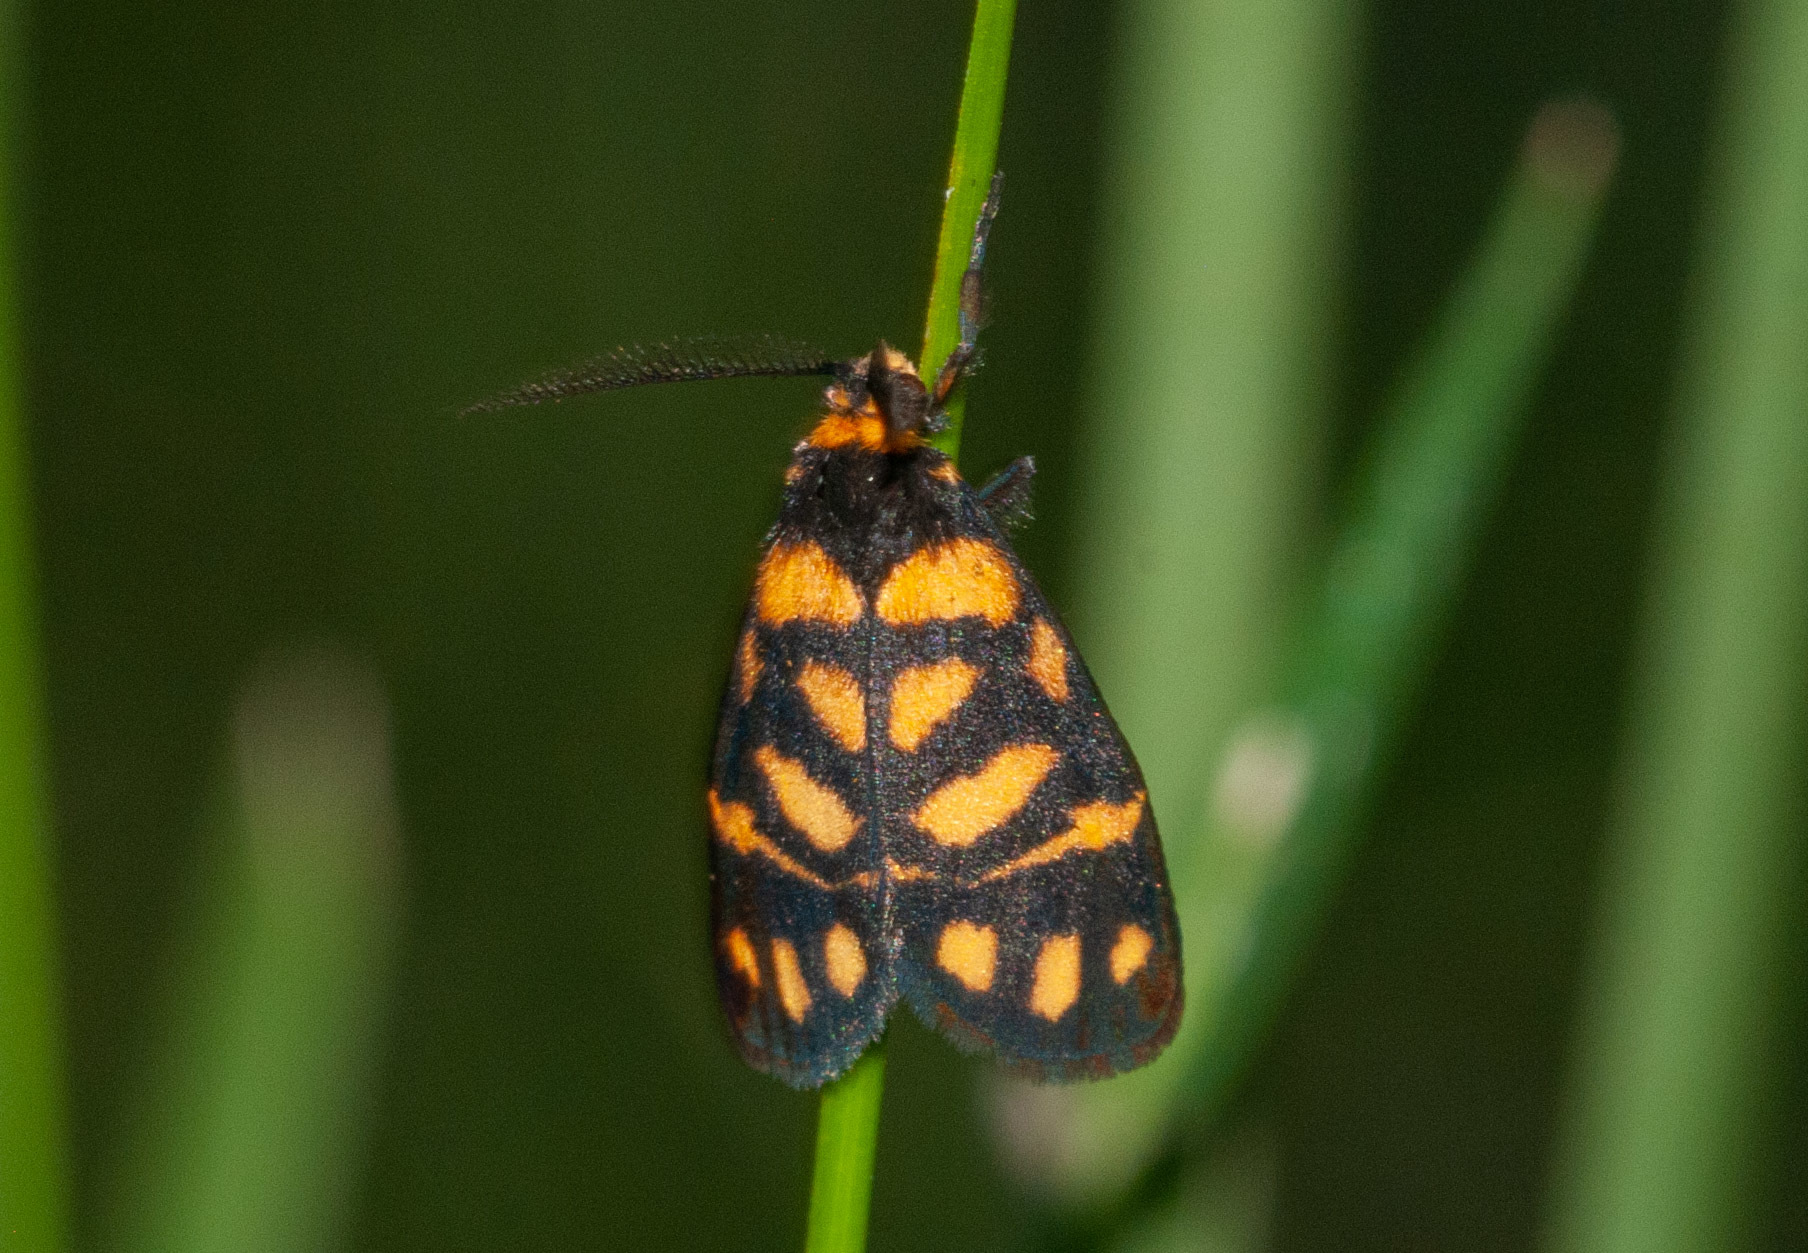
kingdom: Animalia
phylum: Arthropoda
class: Insecta
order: Lepidoptera
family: Erebidae
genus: Asura
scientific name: Asura lydia
